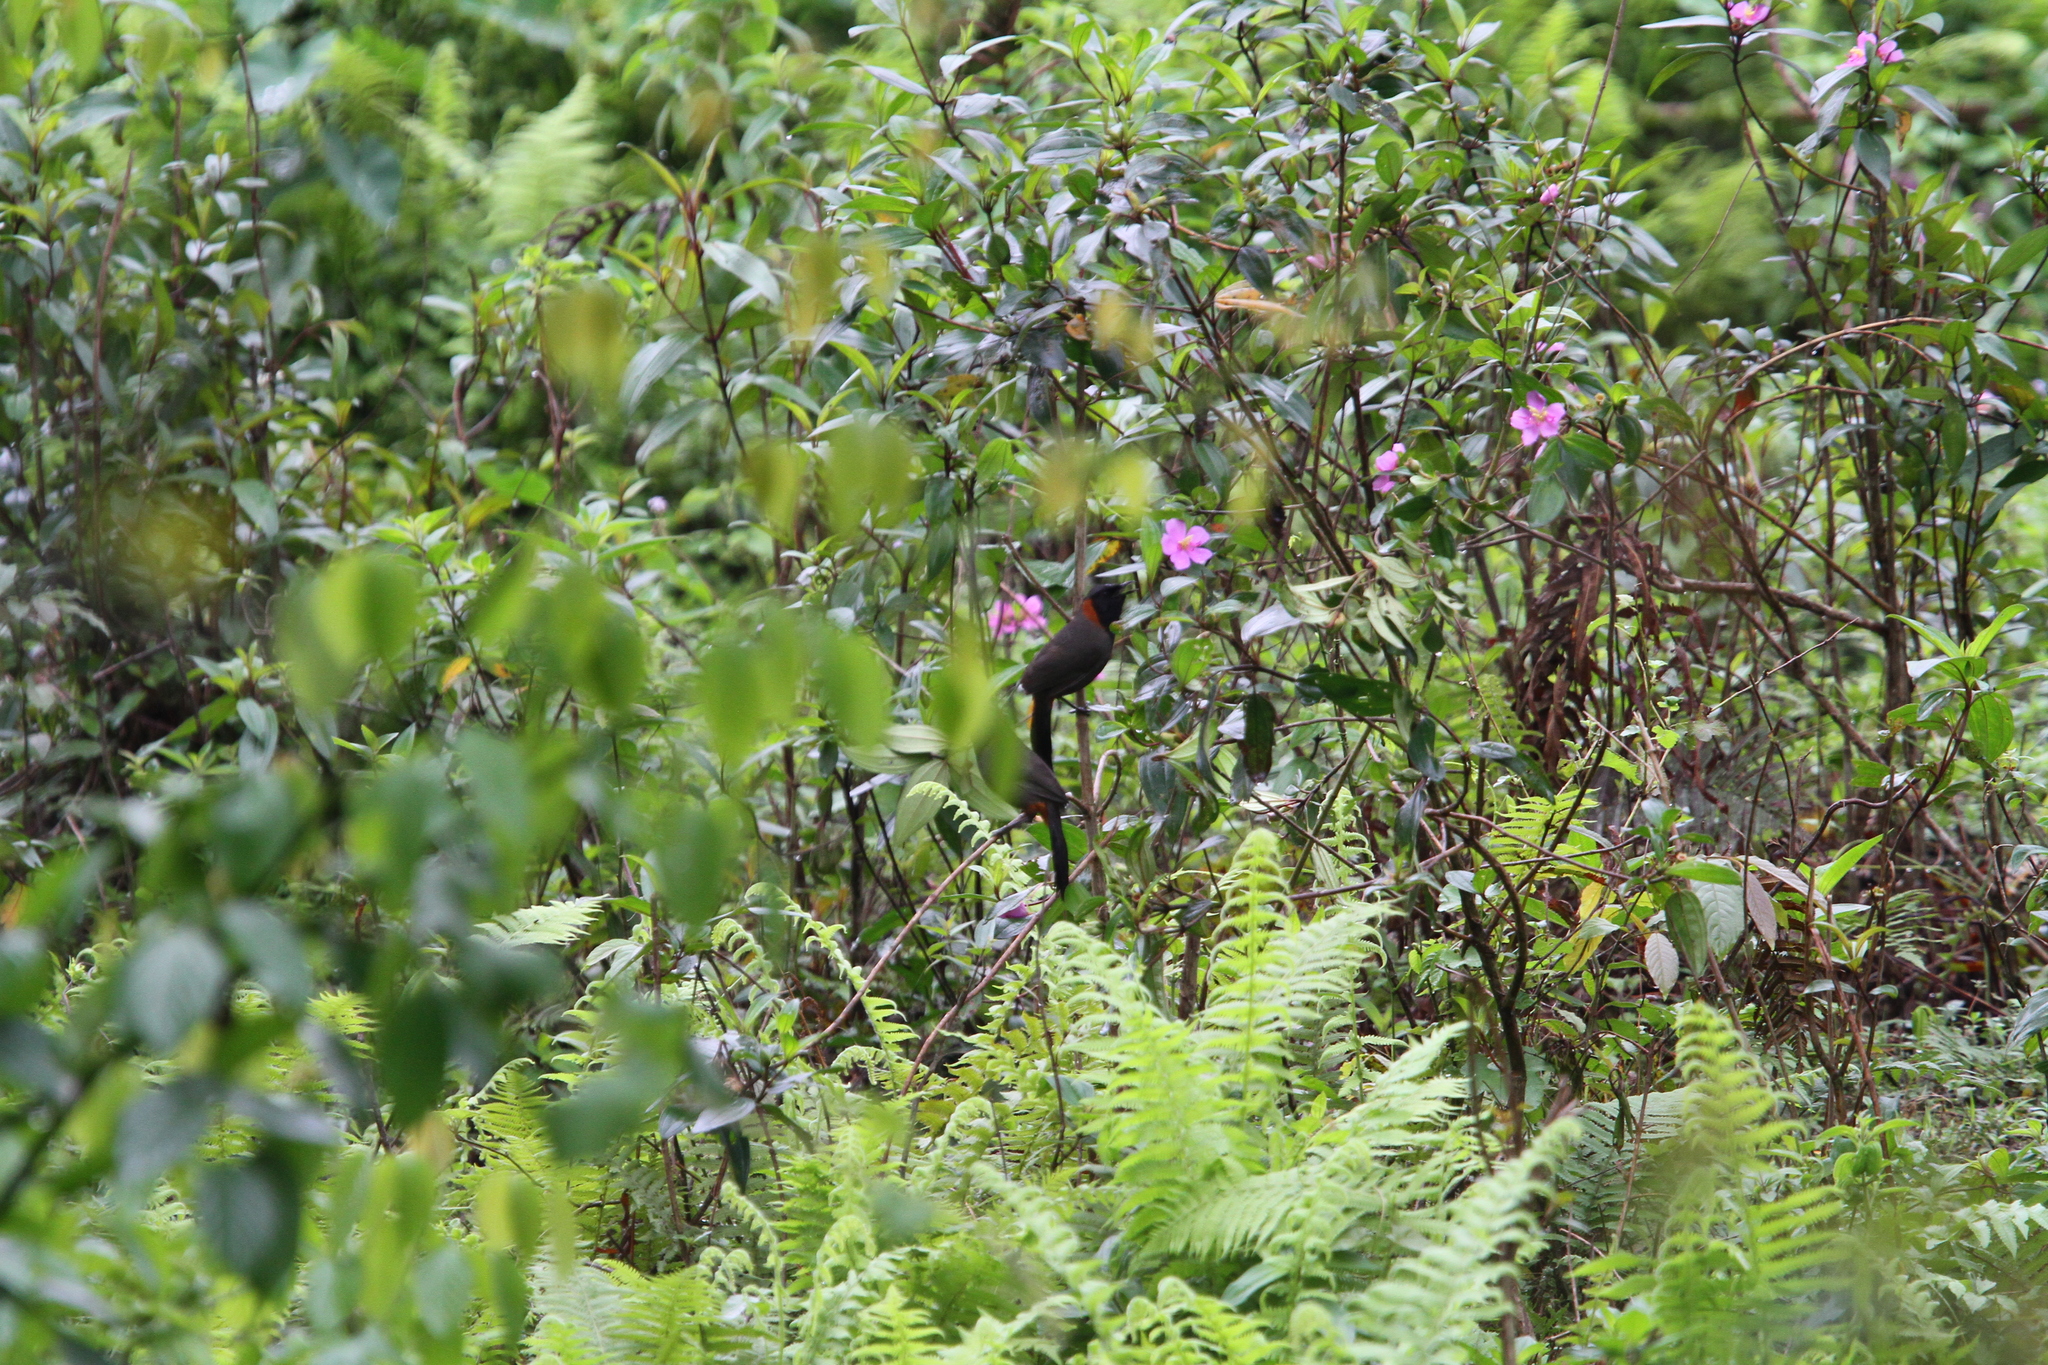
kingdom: Animalia
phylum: Chordata
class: Aves
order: Passeriformes
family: Leiothrichidae
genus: Garrulax
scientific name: Garrulax ruficollis
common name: Rufous-necked laughingthrush
